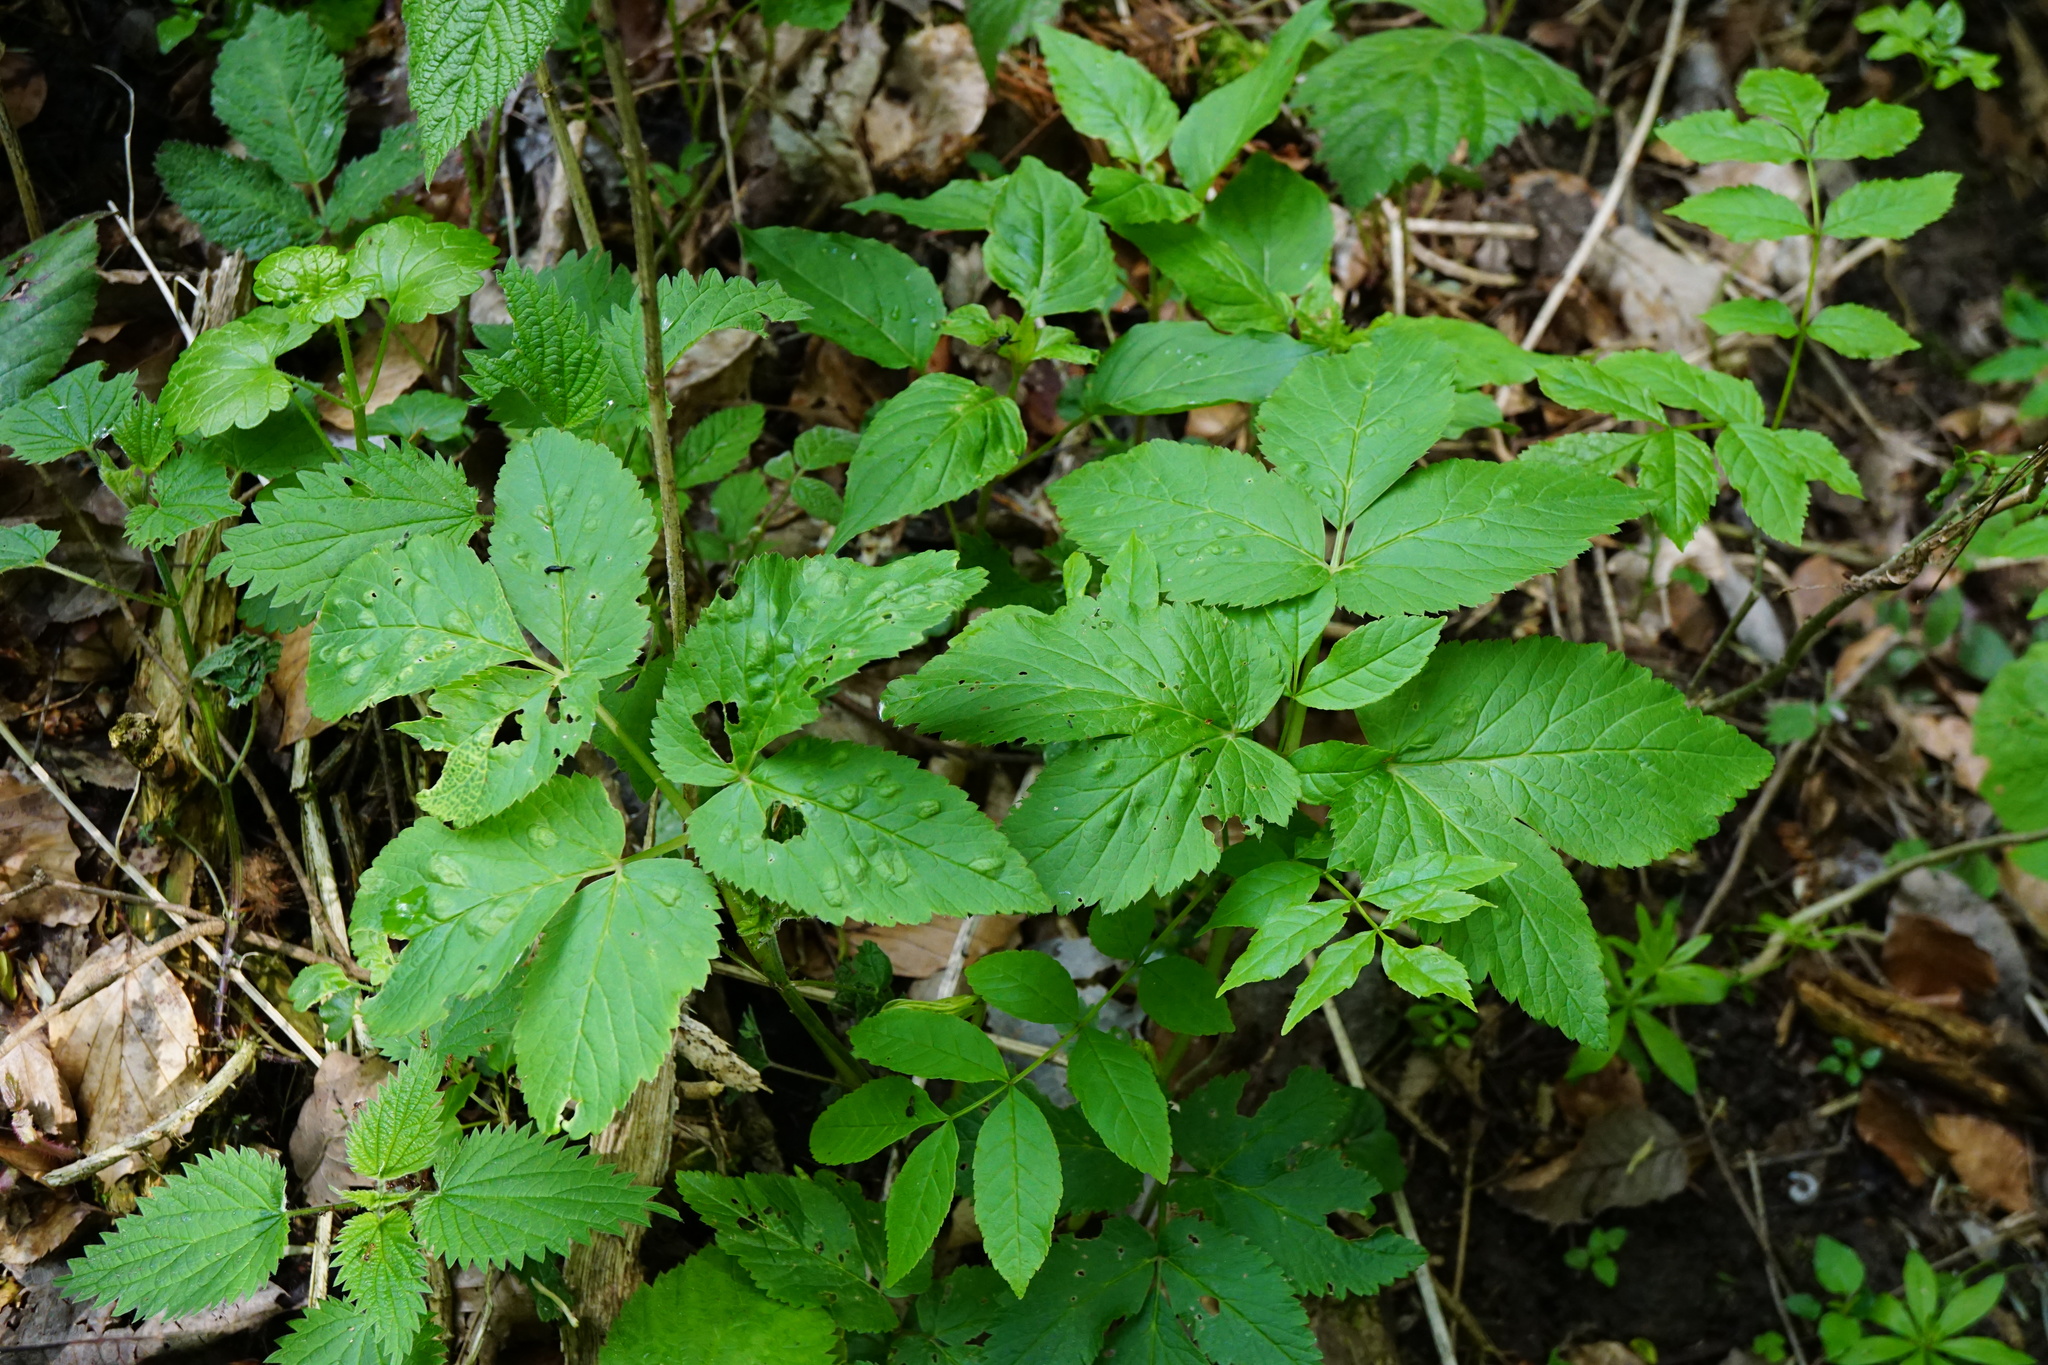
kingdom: Plantae
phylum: Tracheophyta
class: Magnoliopsida
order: Apiales
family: Apiaceae
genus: Aegopodium
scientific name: Aegopodium podagraria
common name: Ground-elder
